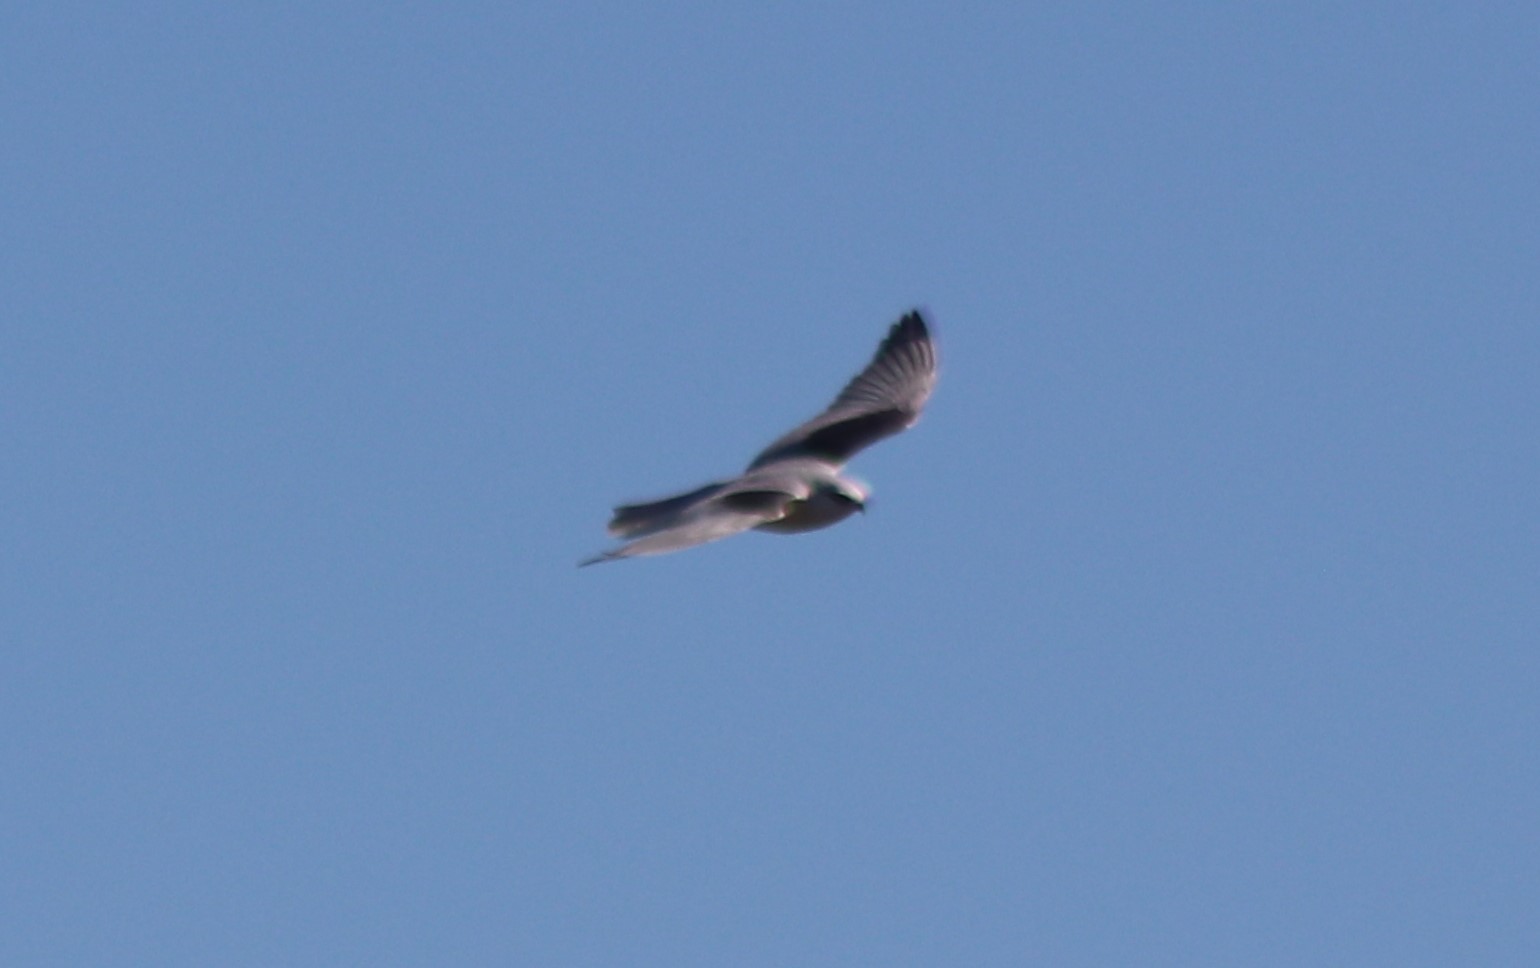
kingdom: Animalia
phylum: Chordata
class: Aves
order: Accipitriformes
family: Accipitridae
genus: Elanus
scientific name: Elanus leucurus
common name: White-tailed kite
